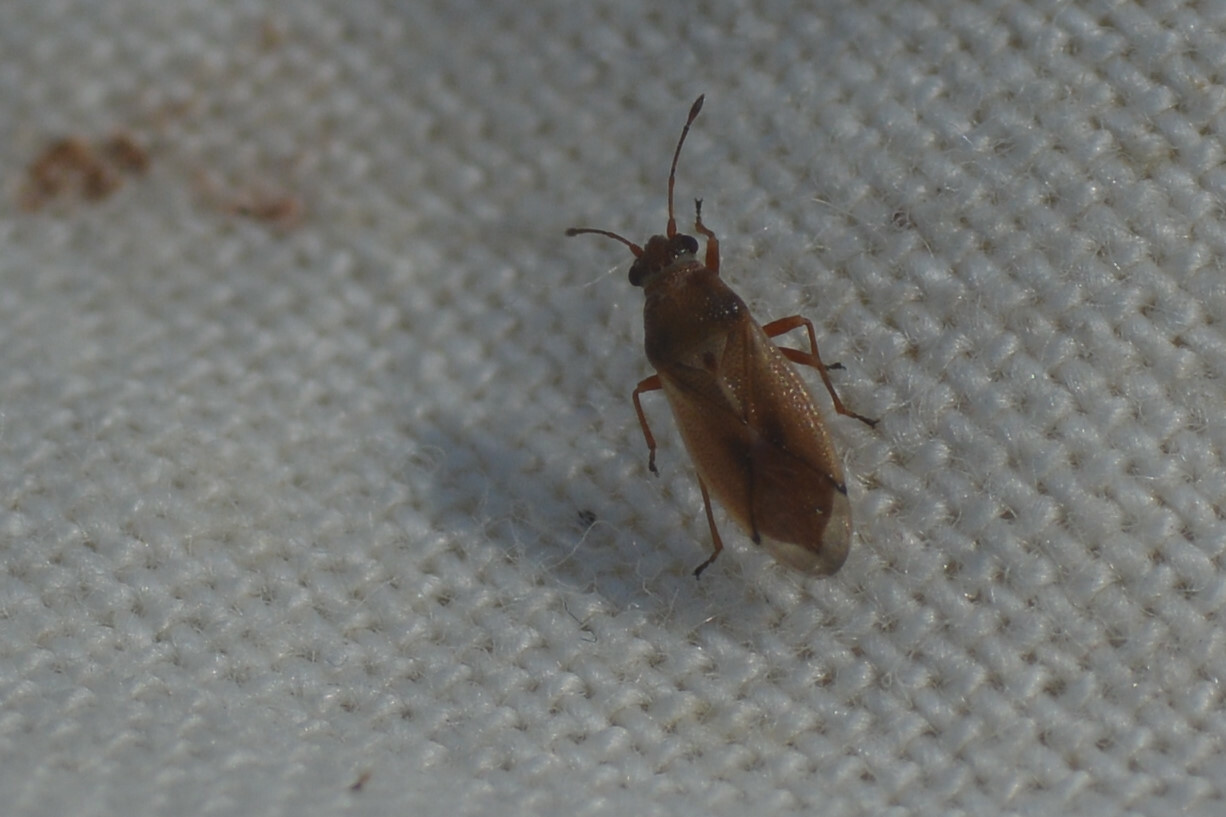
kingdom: Animalia
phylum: Arthropoda
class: Insecta
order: Hemiptera
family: Cymidae
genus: Cymus
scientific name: Cymus melanocephalus
